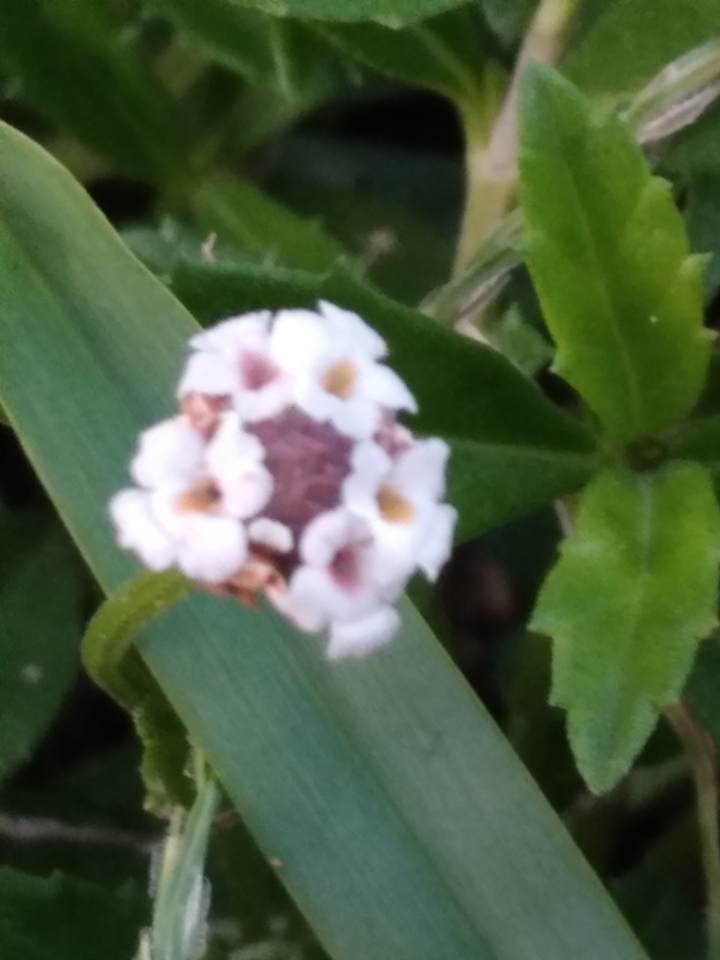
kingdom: Plantae
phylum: Tracheophyta
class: Magnoliopsida
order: Lamiales
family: Verbenaceae
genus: Phyla
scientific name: Phyla nodiflora
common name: Frogfruit
